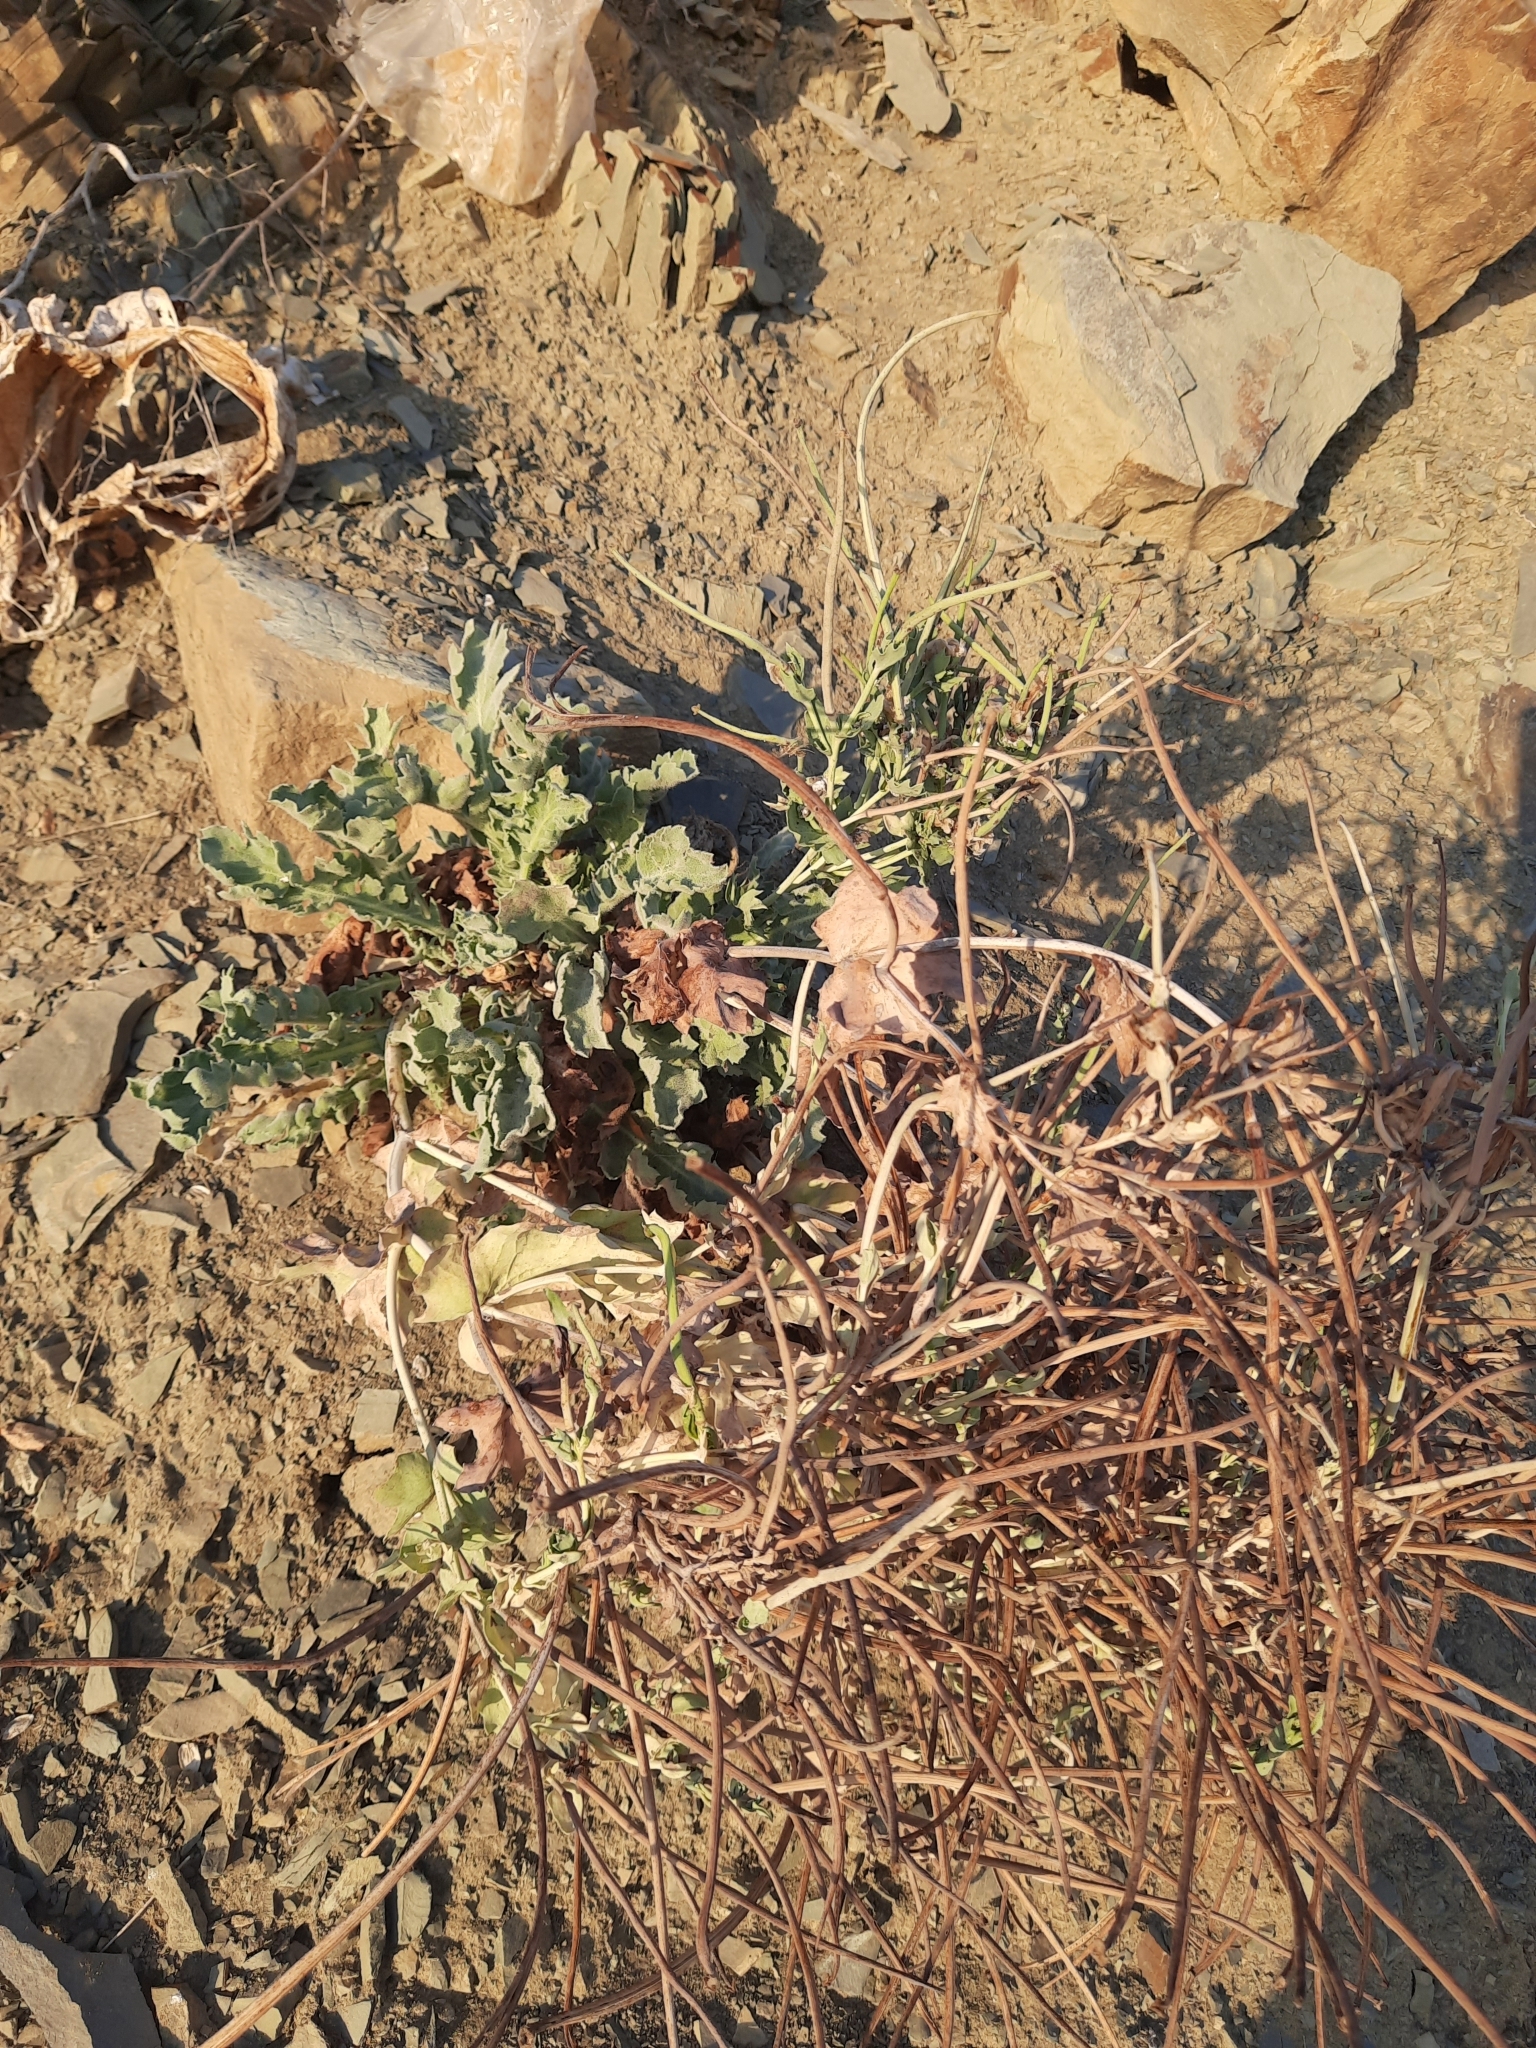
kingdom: Plantae
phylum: Tracheophyta
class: Magnoliopsida
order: Ranunculales
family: Papaveraceae
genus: Glaucium
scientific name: Glaucium flavum
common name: Yellow horned-poppy
